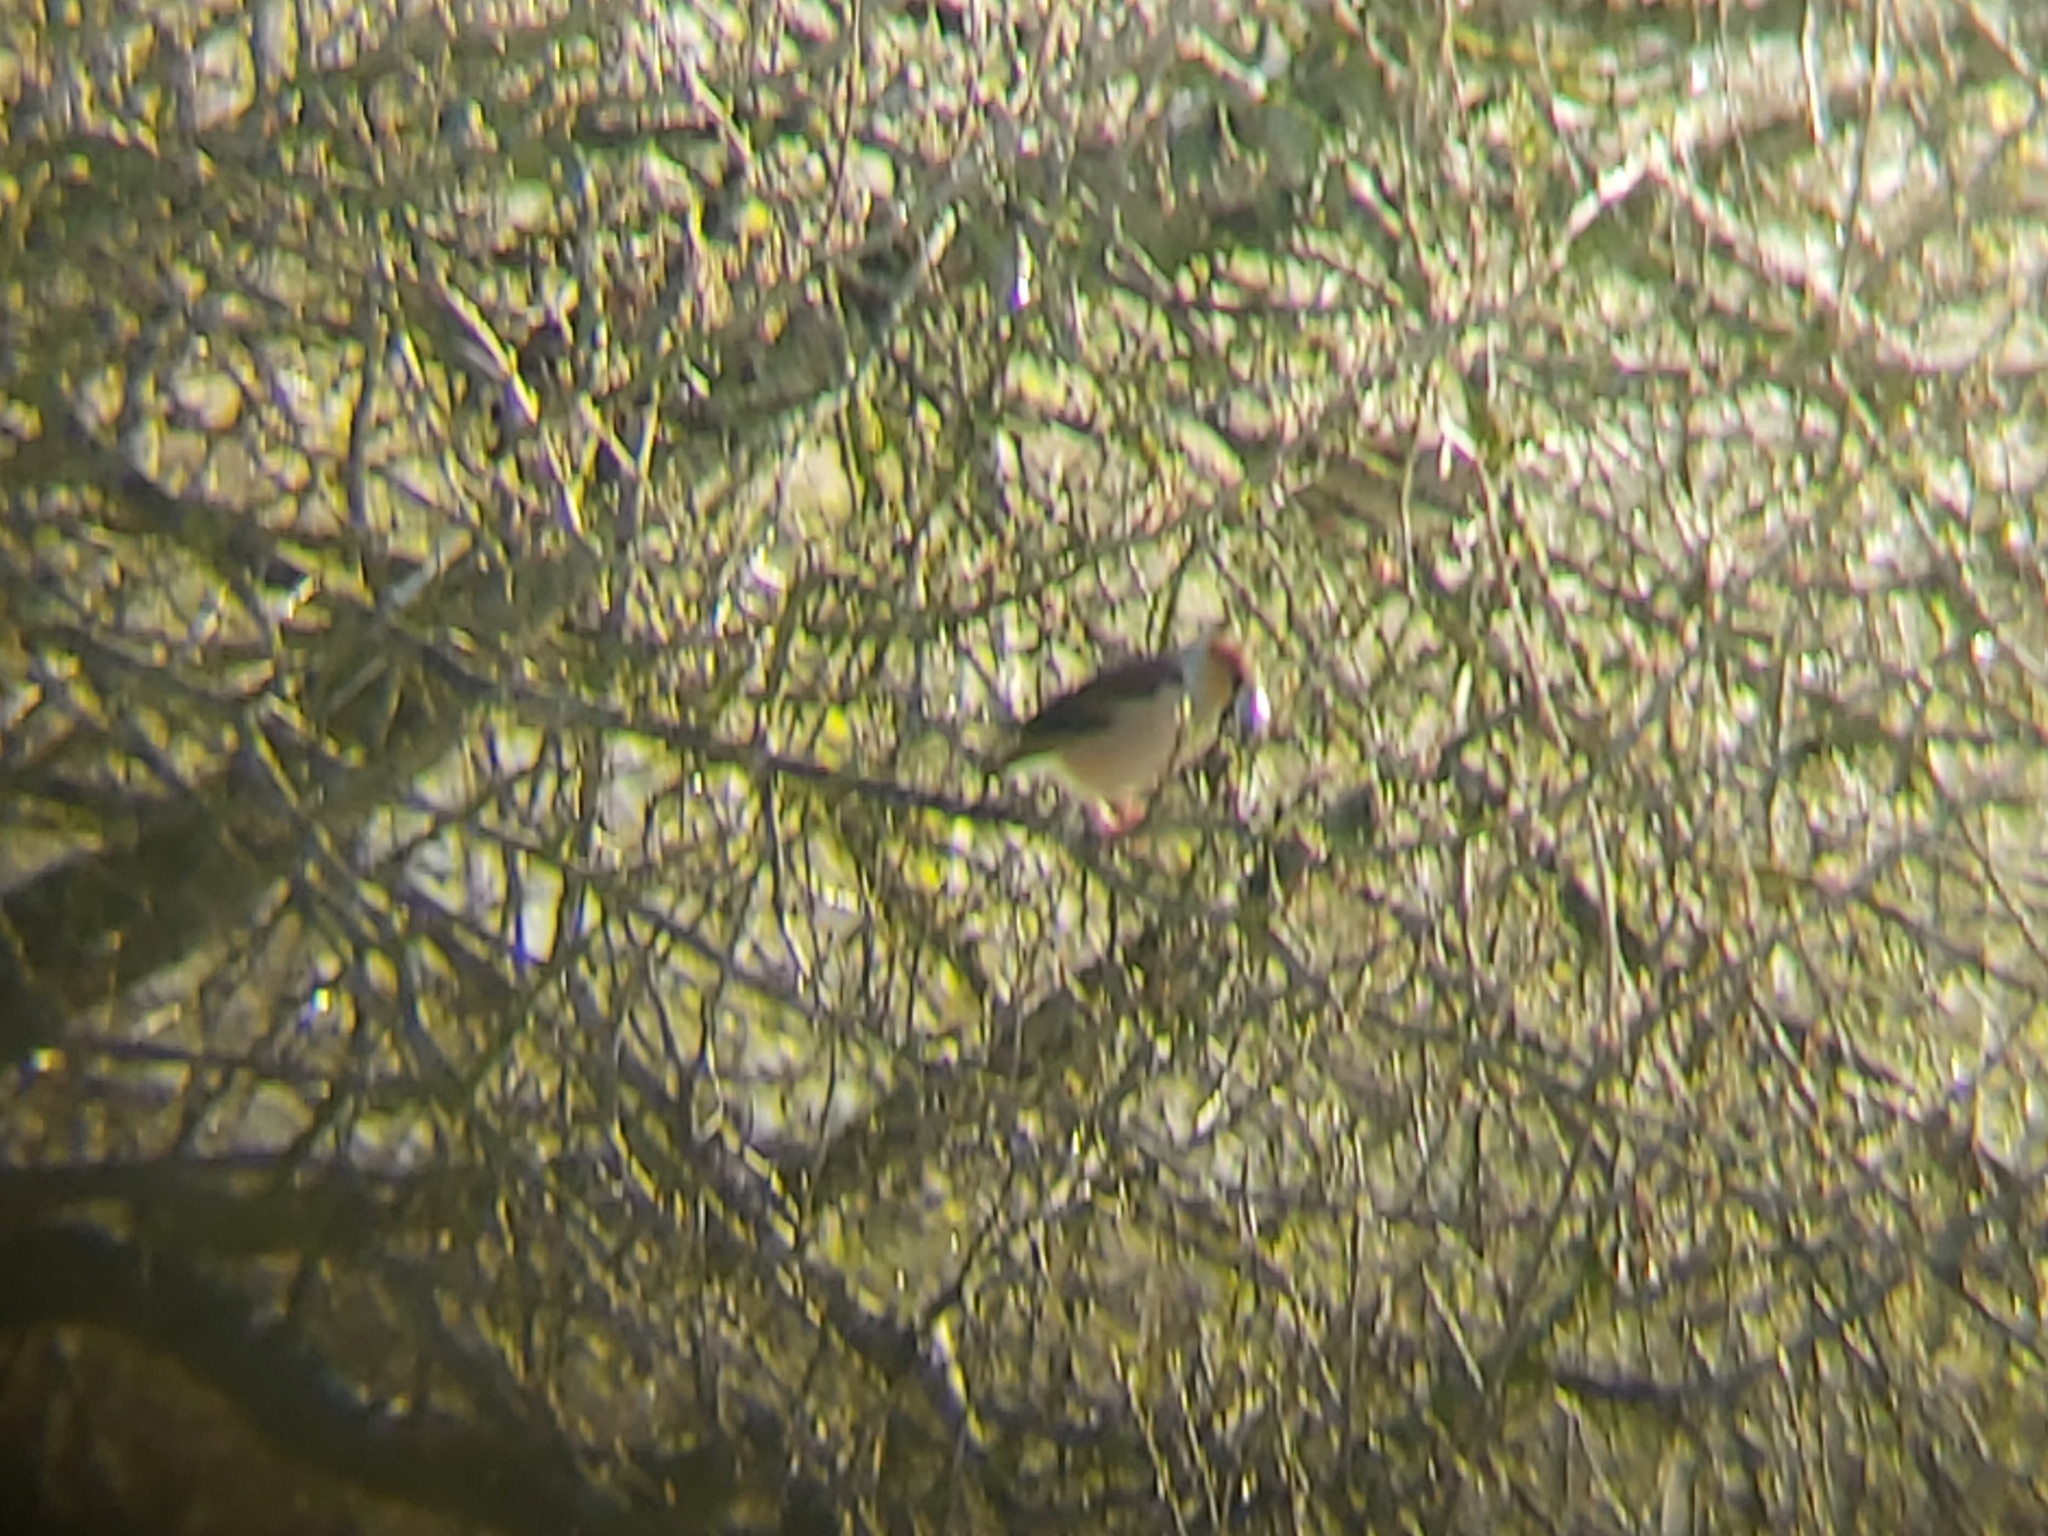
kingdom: Animalia
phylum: Chordata
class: Aves
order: Passeriformes
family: Fringillidae
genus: Coccothraustes
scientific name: Coccothraustes coccothraustes
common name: Hawfinch
